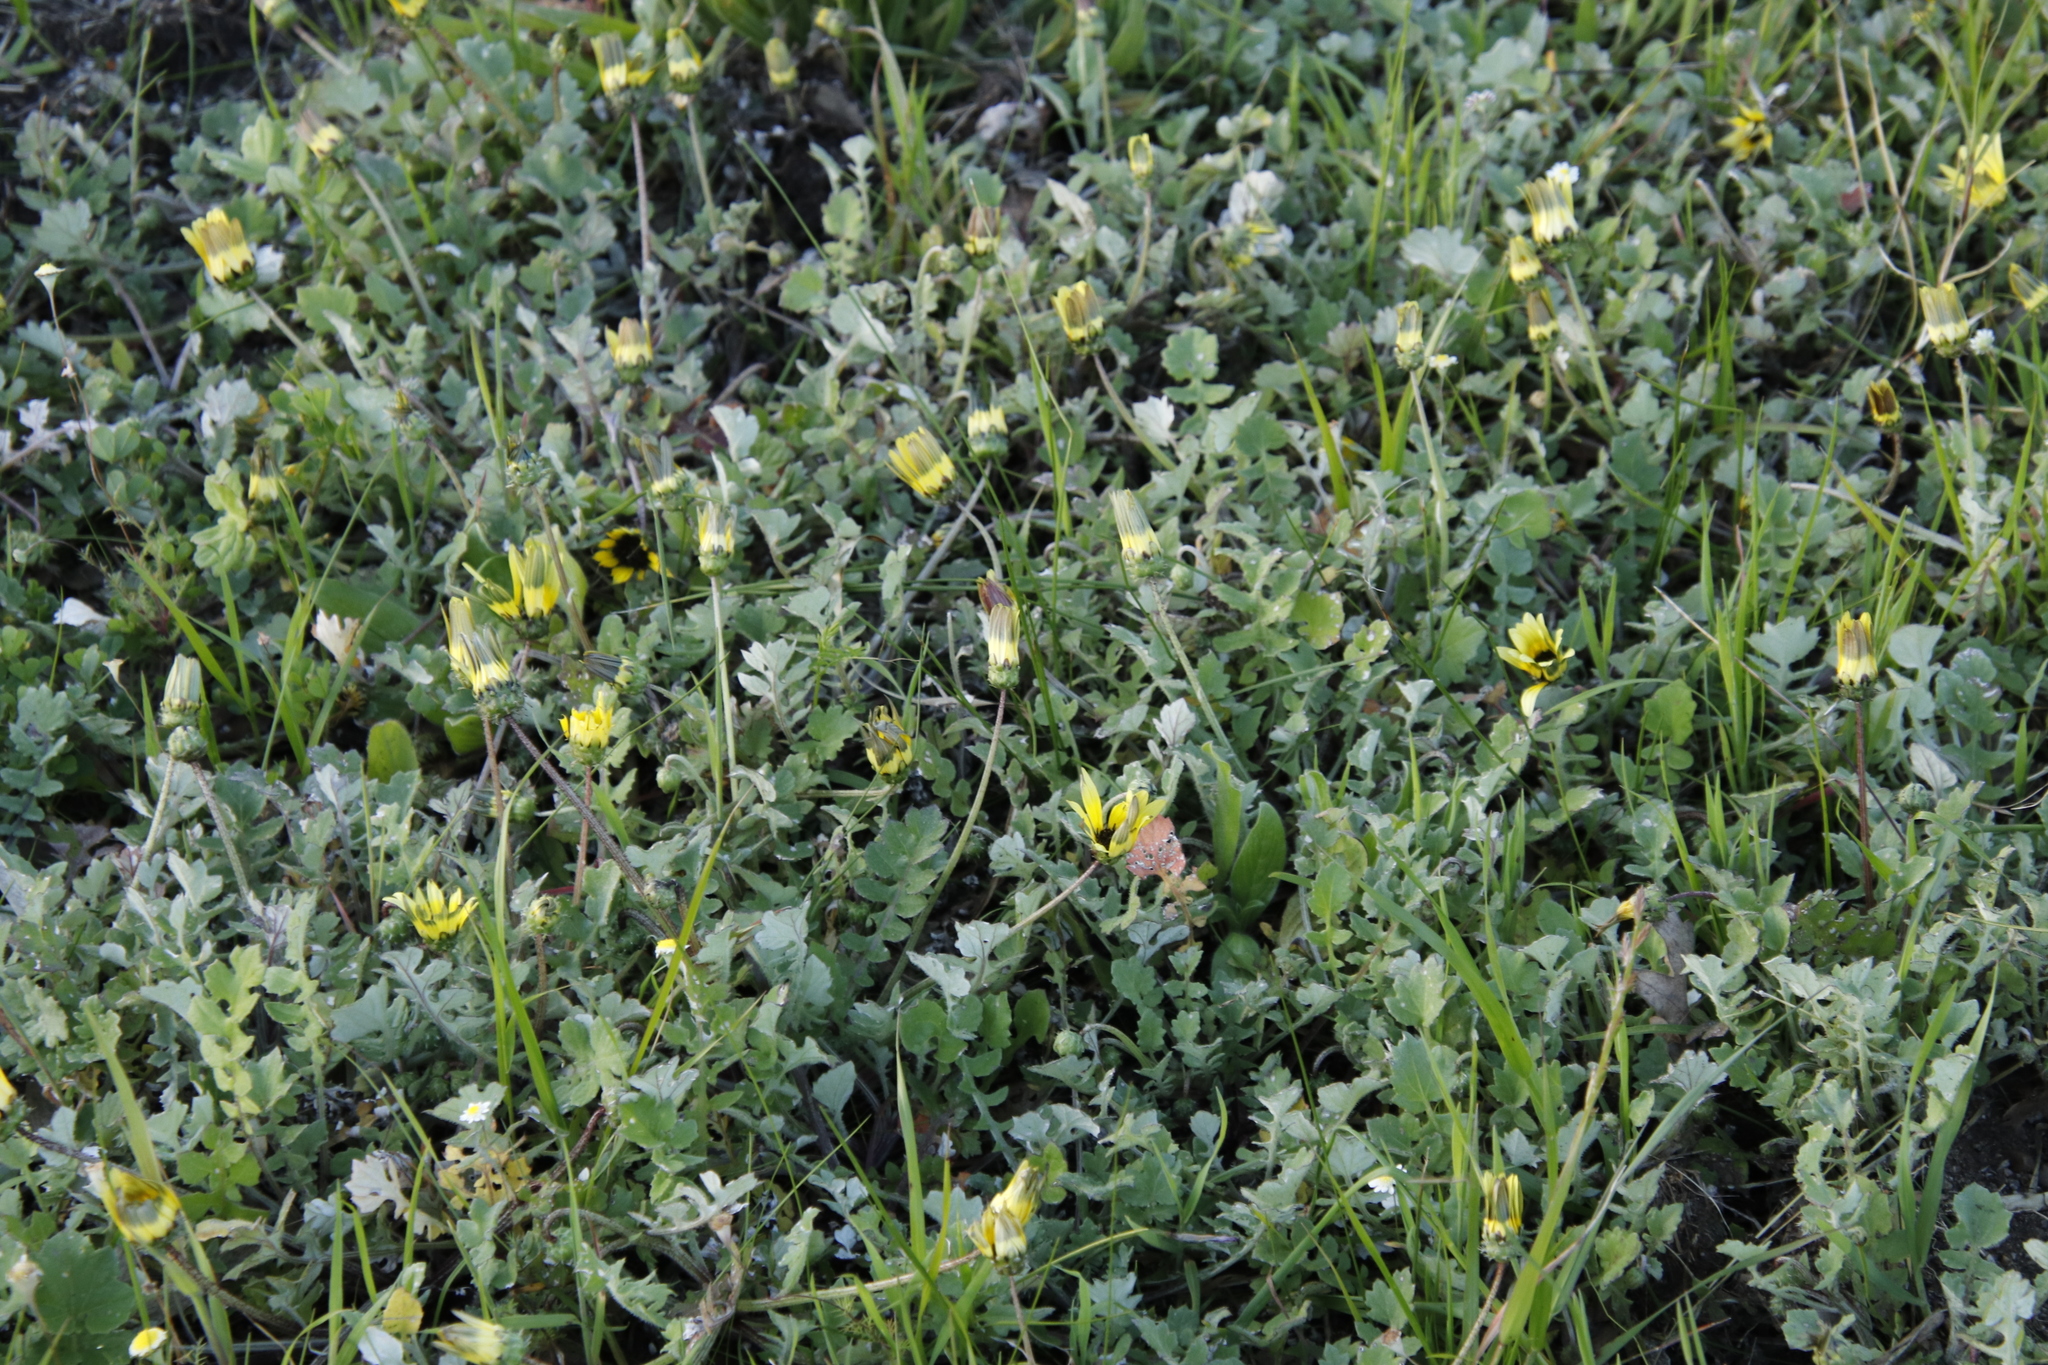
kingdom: Plantae
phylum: Tracheophyta
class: Magnoliopsida
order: Asterales
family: Asteraceae
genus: Arctotheca
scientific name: Arctotheca calendula
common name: Capeweed
